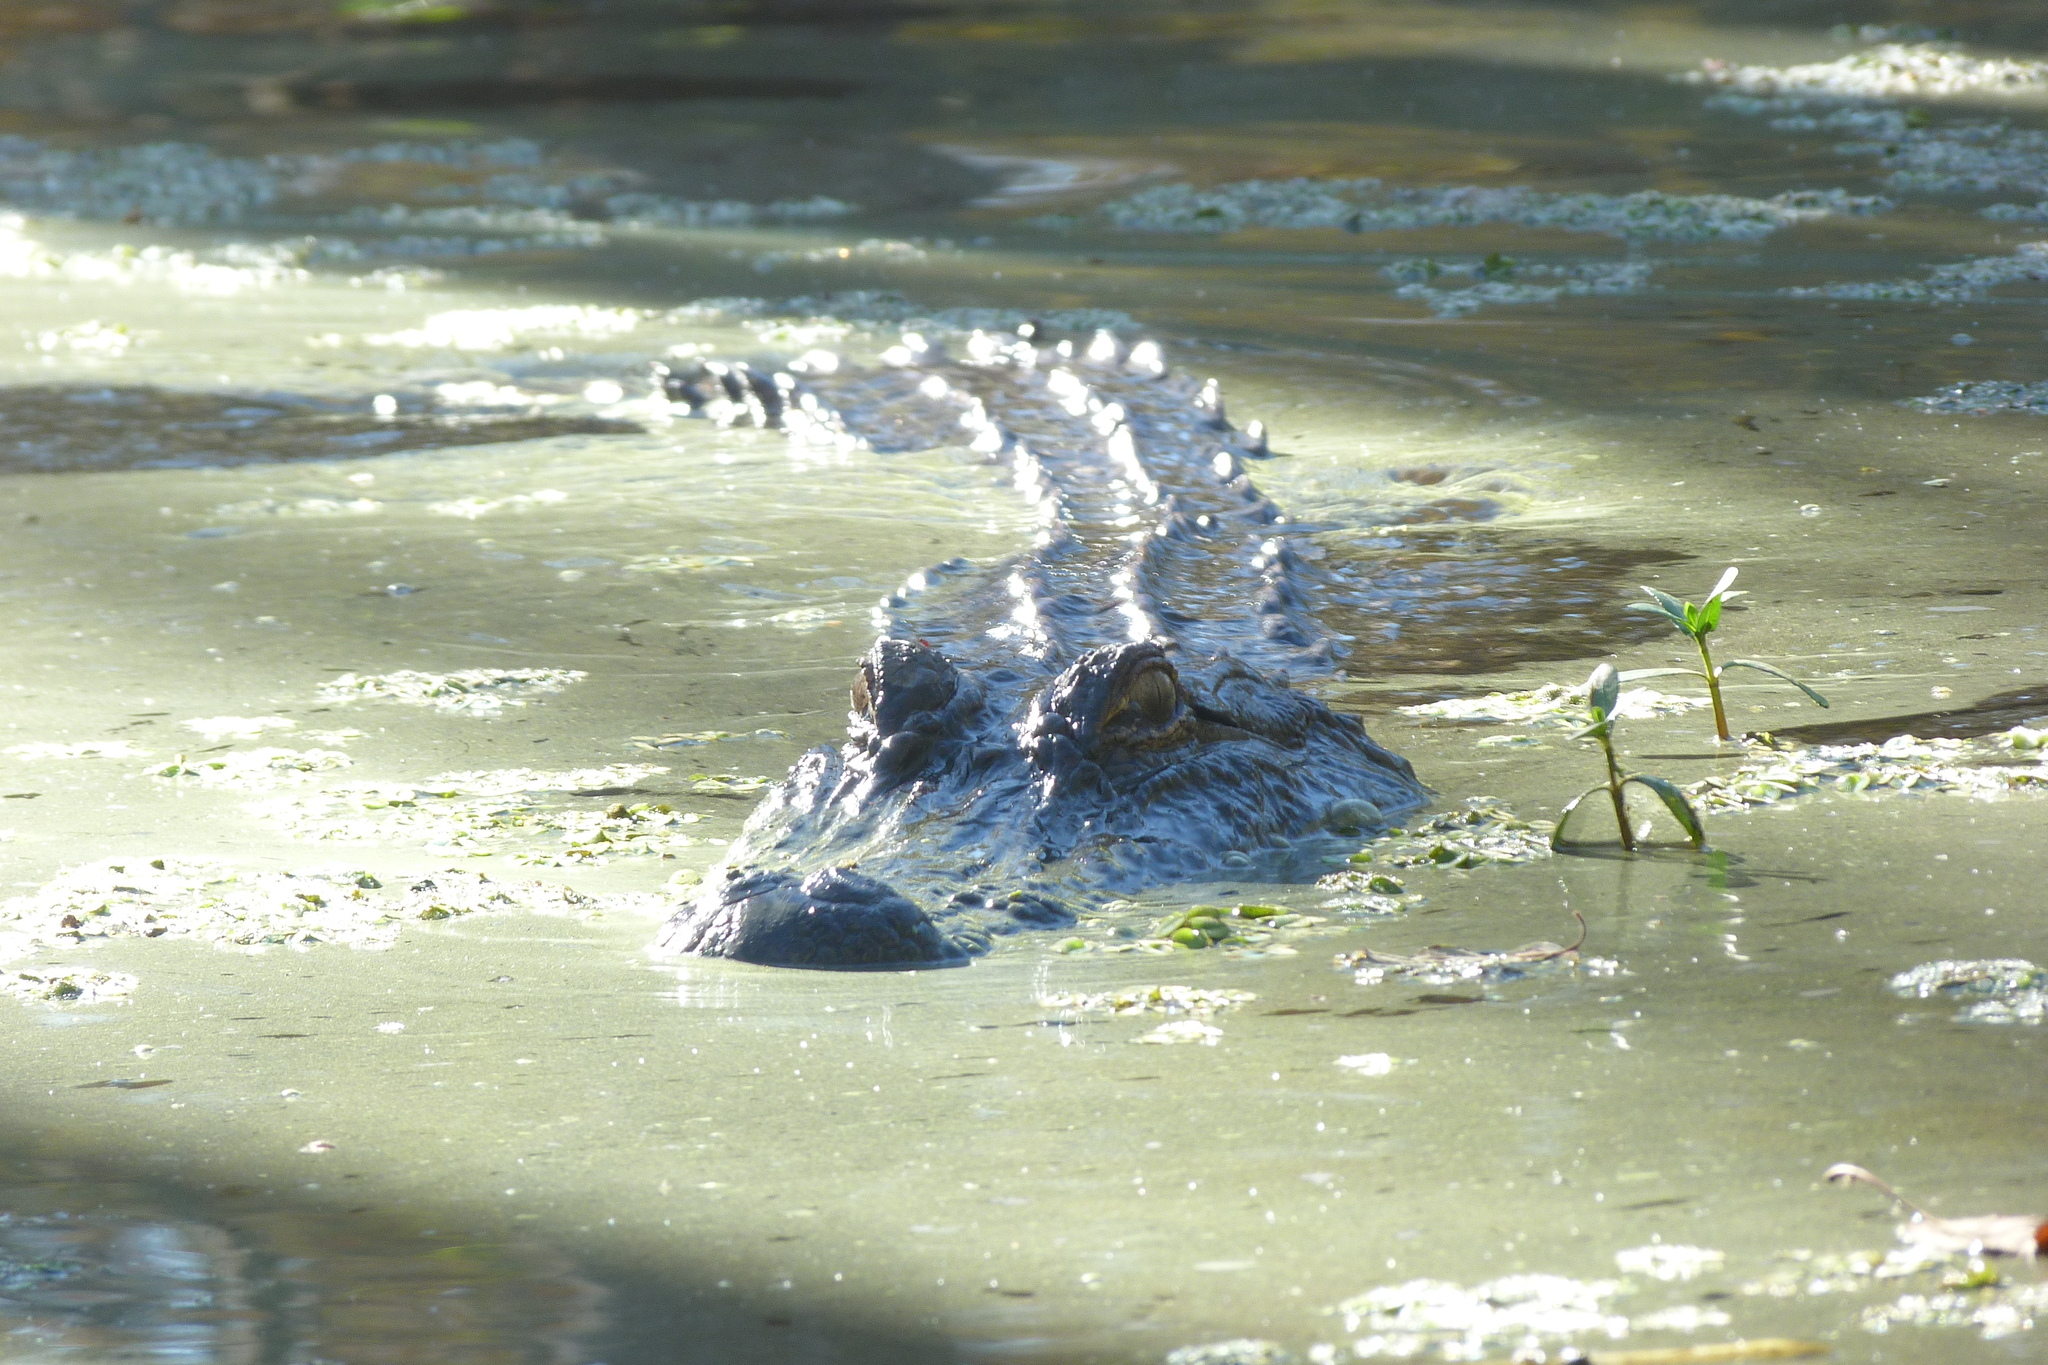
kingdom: Animalia
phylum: Chordata
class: Crocodylia
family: Alligatoridae
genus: Alligator
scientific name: Alligator mississippiensis
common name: American alligator
